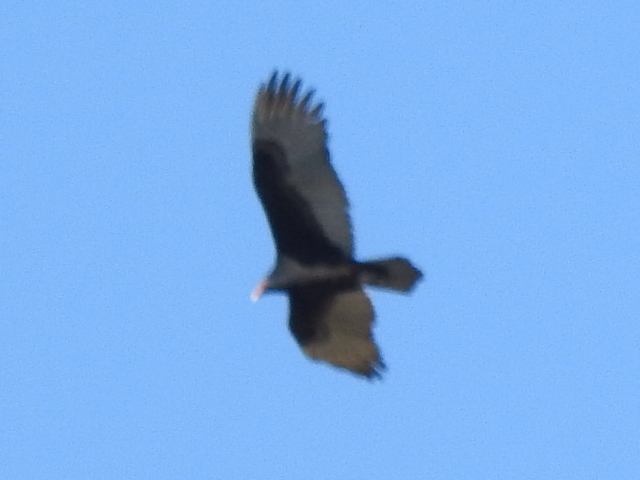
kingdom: Animalia
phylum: Chordata
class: Aves
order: Accipitriformes
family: Cathartidae
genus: Cathartes
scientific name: Cathartes aura
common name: Turkey vulture
